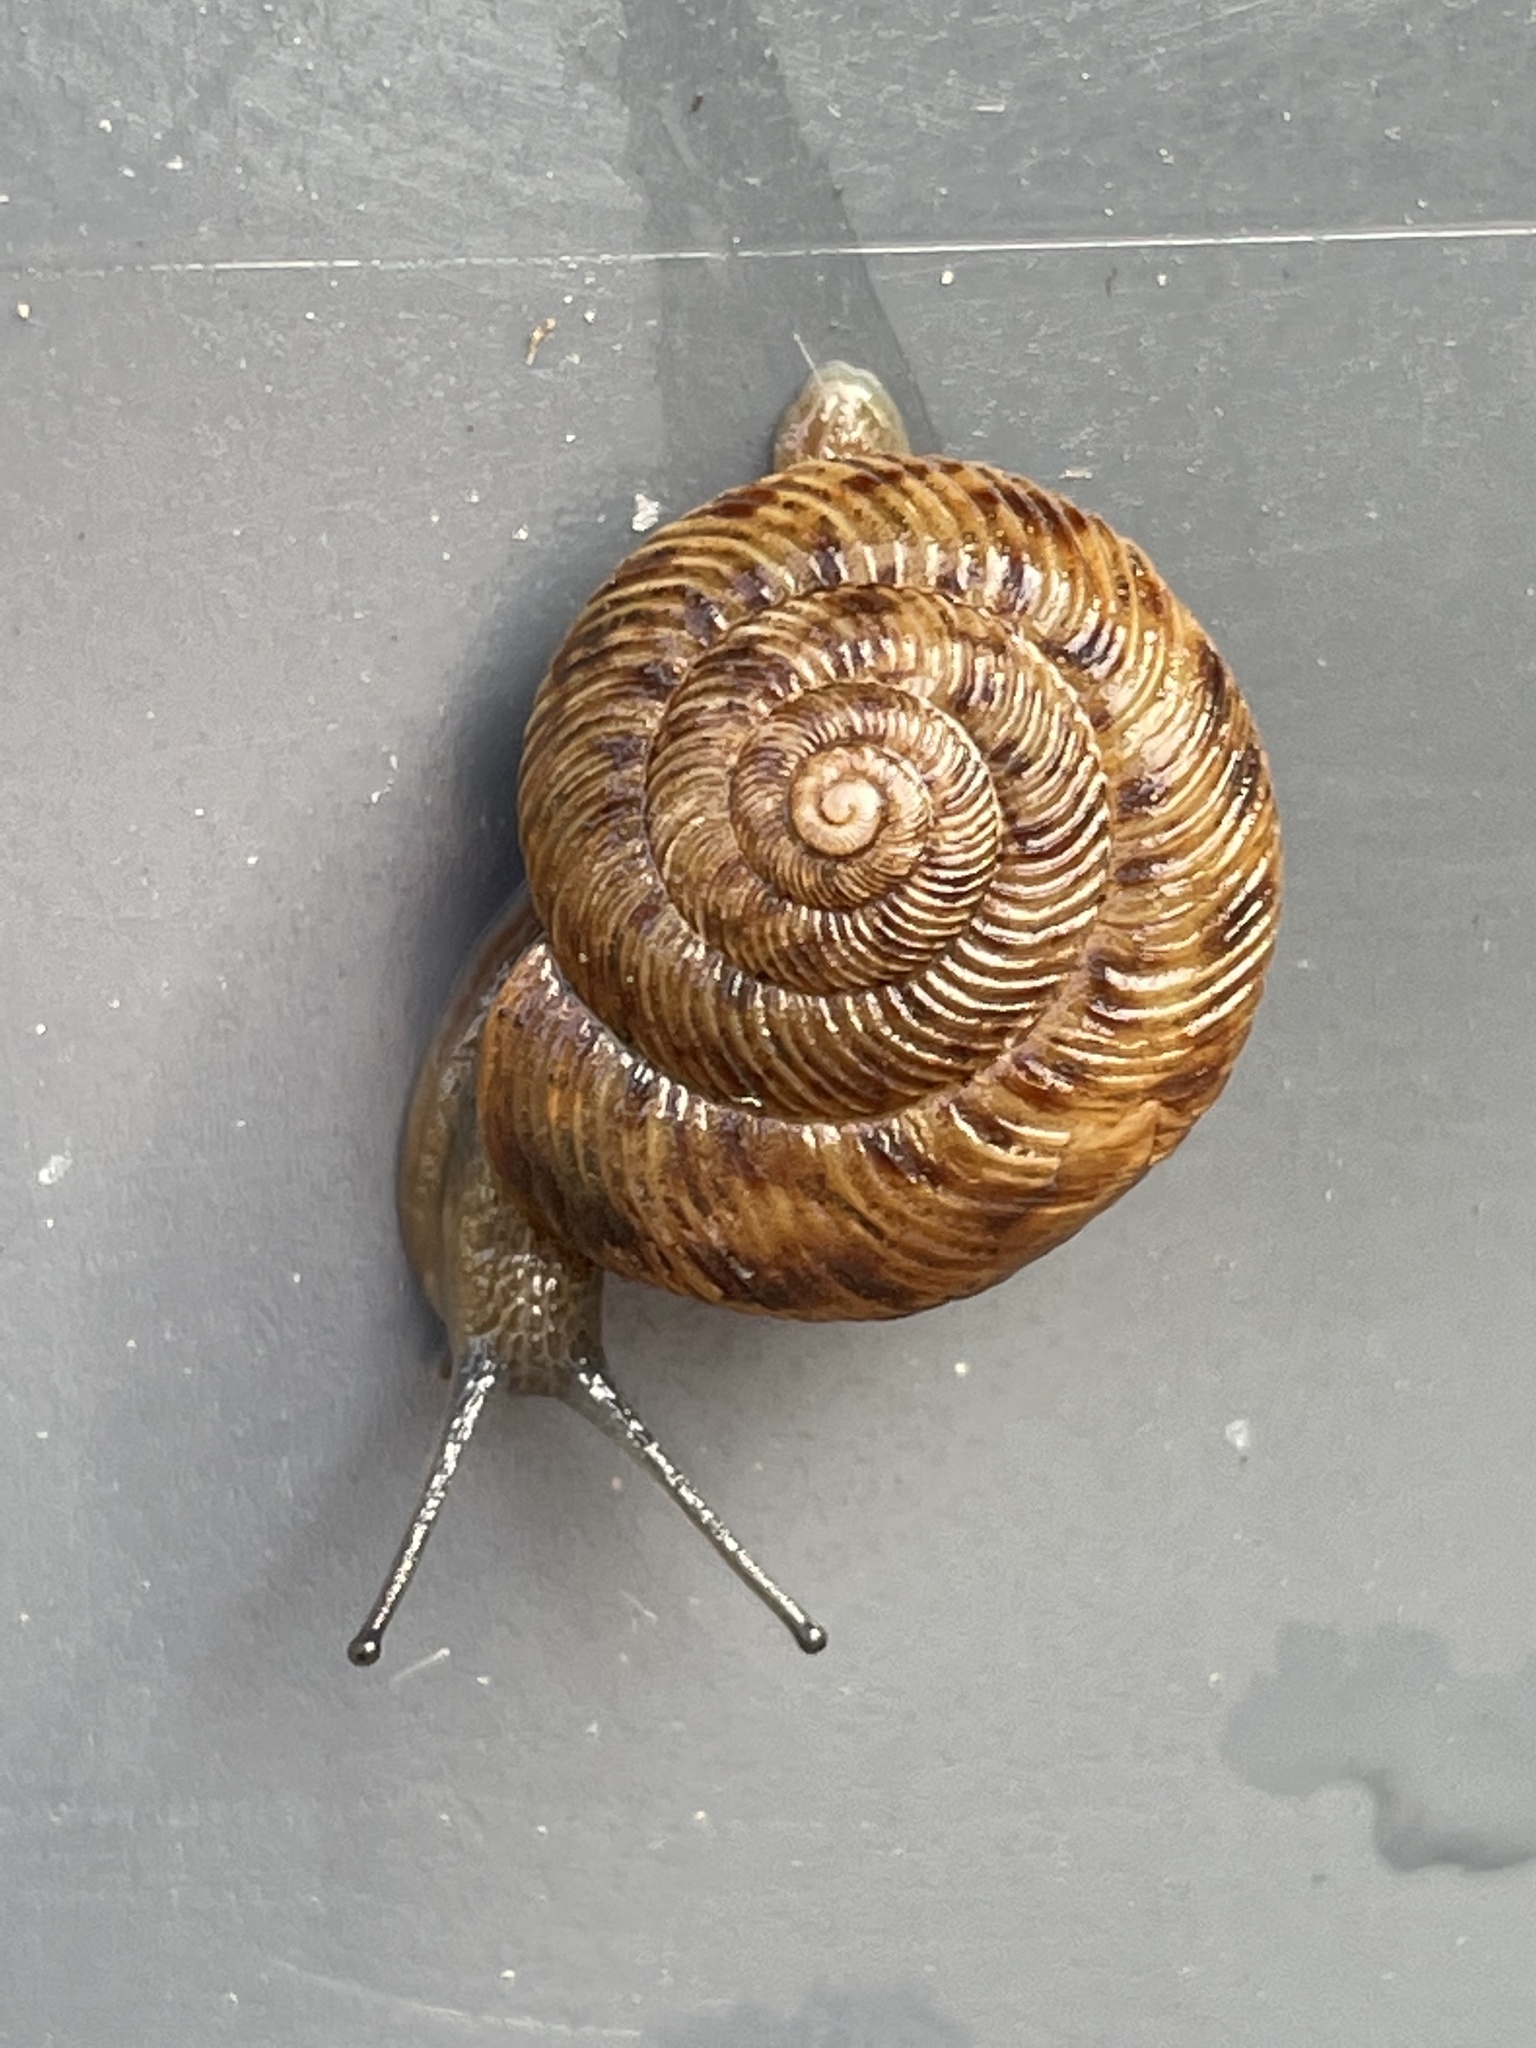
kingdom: Animalia
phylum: Mollusca
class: Gastropoda
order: Stylommatophora
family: Discidae
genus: Anguispira
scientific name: Anguispira alternata
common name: Flamed tigersnail
